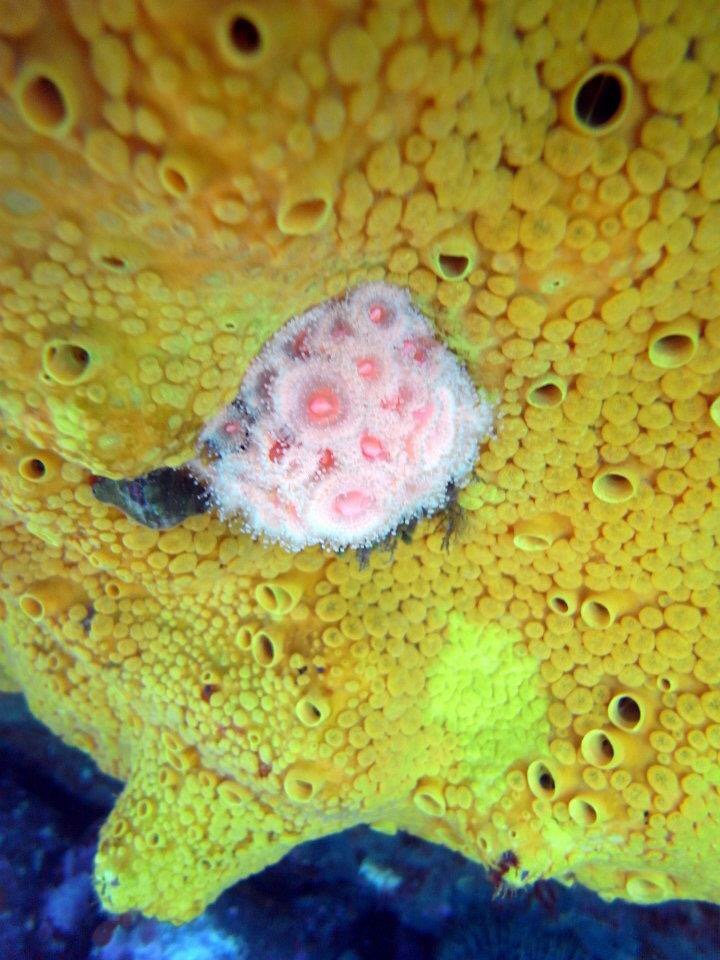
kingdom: Animalia
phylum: Cnidaria
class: Anthozoa
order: Corallimorpharia
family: Corallimorphidae
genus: Corynactis
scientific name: Corynactis australis
